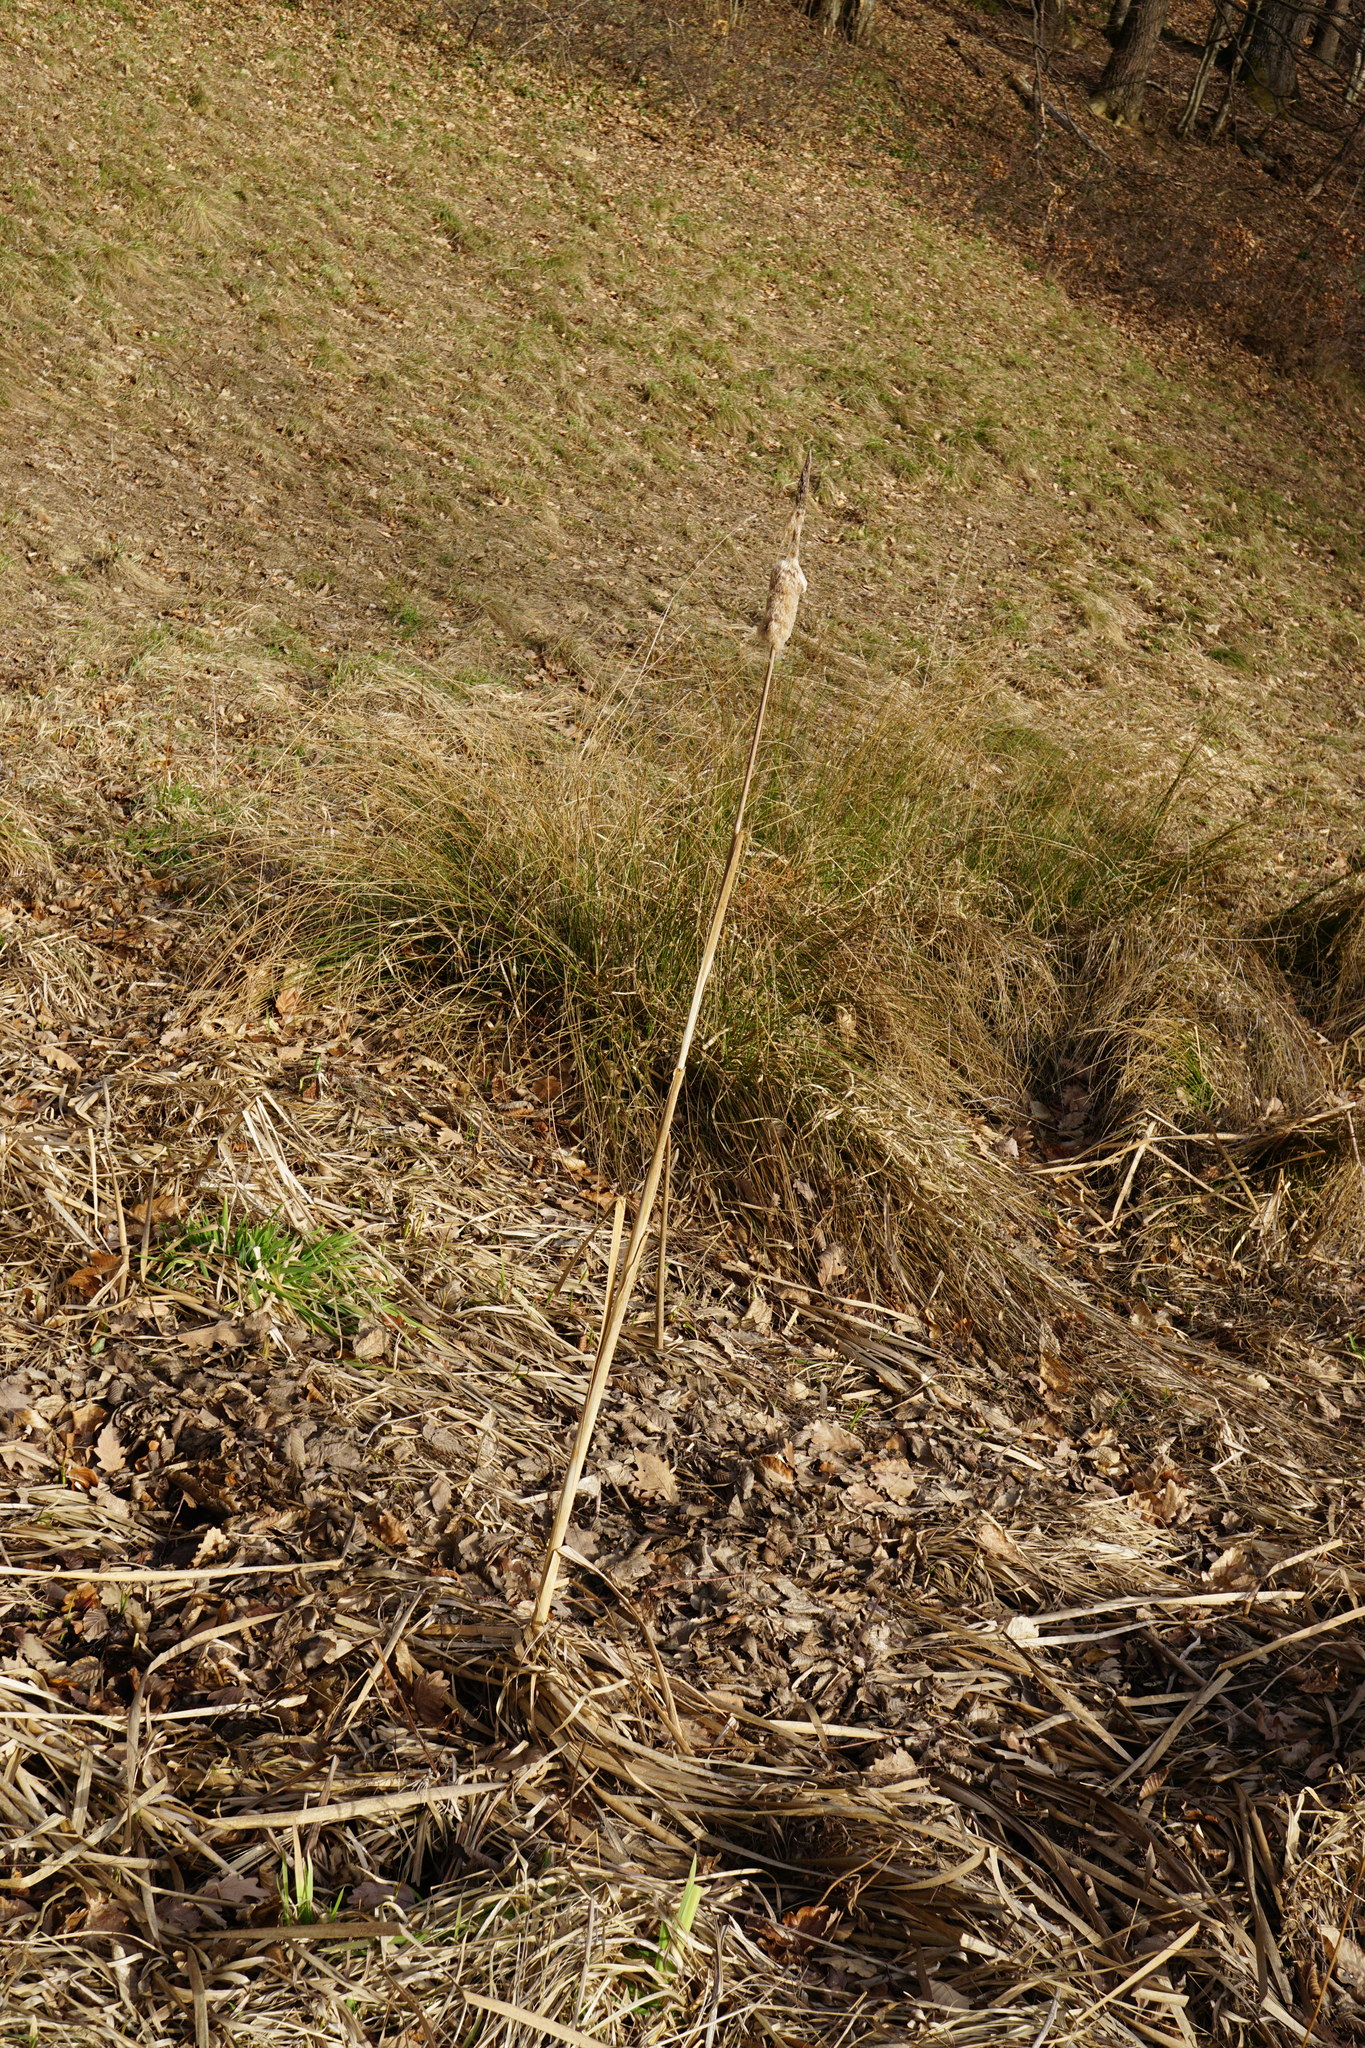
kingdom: Plantae
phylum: Tracheophyta
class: Liliopsida
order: Poales
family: Typhaceae
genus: Typha
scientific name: Typha shuttleworthii
